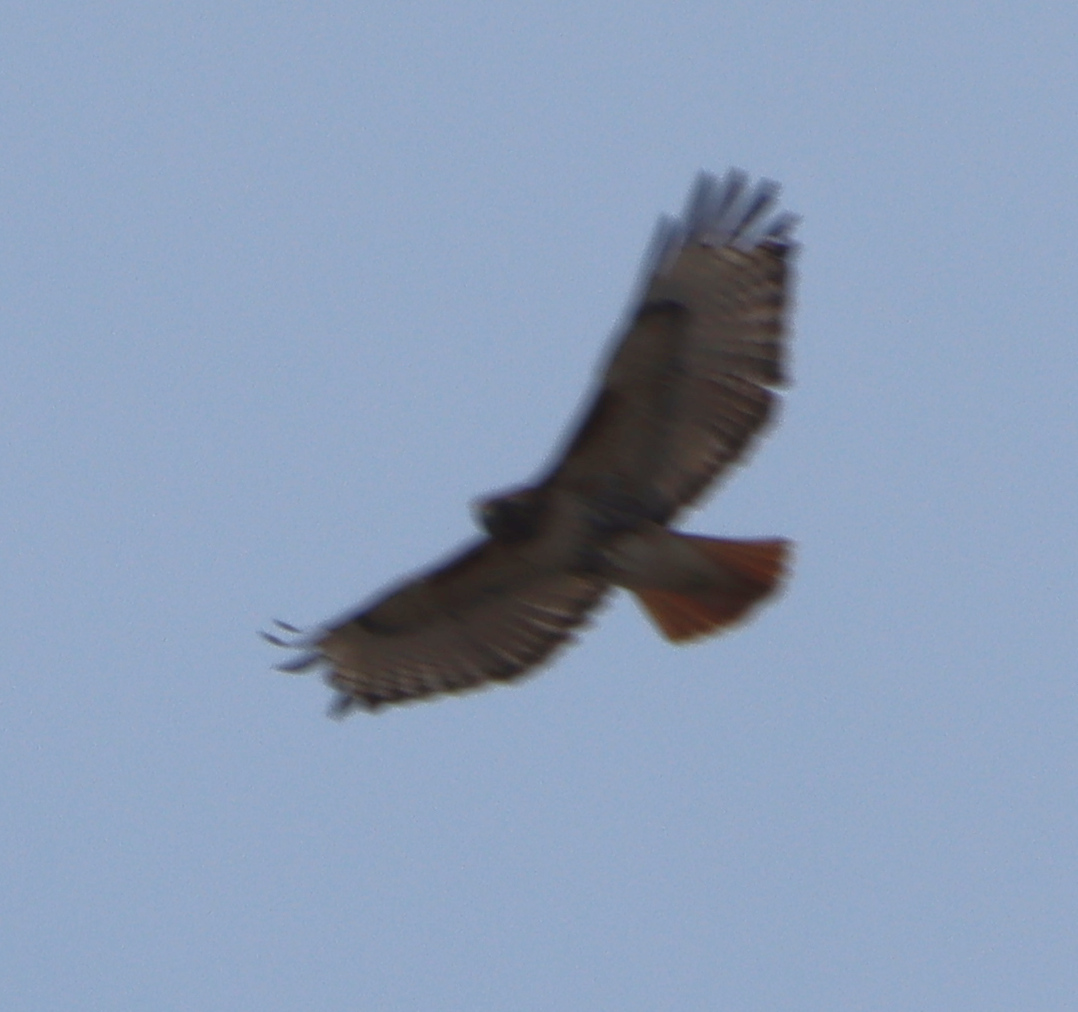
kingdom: Animalia
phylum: Chordata
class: Aves
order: Accipitriformes
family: Accipitridae
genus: Buteo
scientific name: Buteo jamaicensis
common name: Red-tailed hawk
